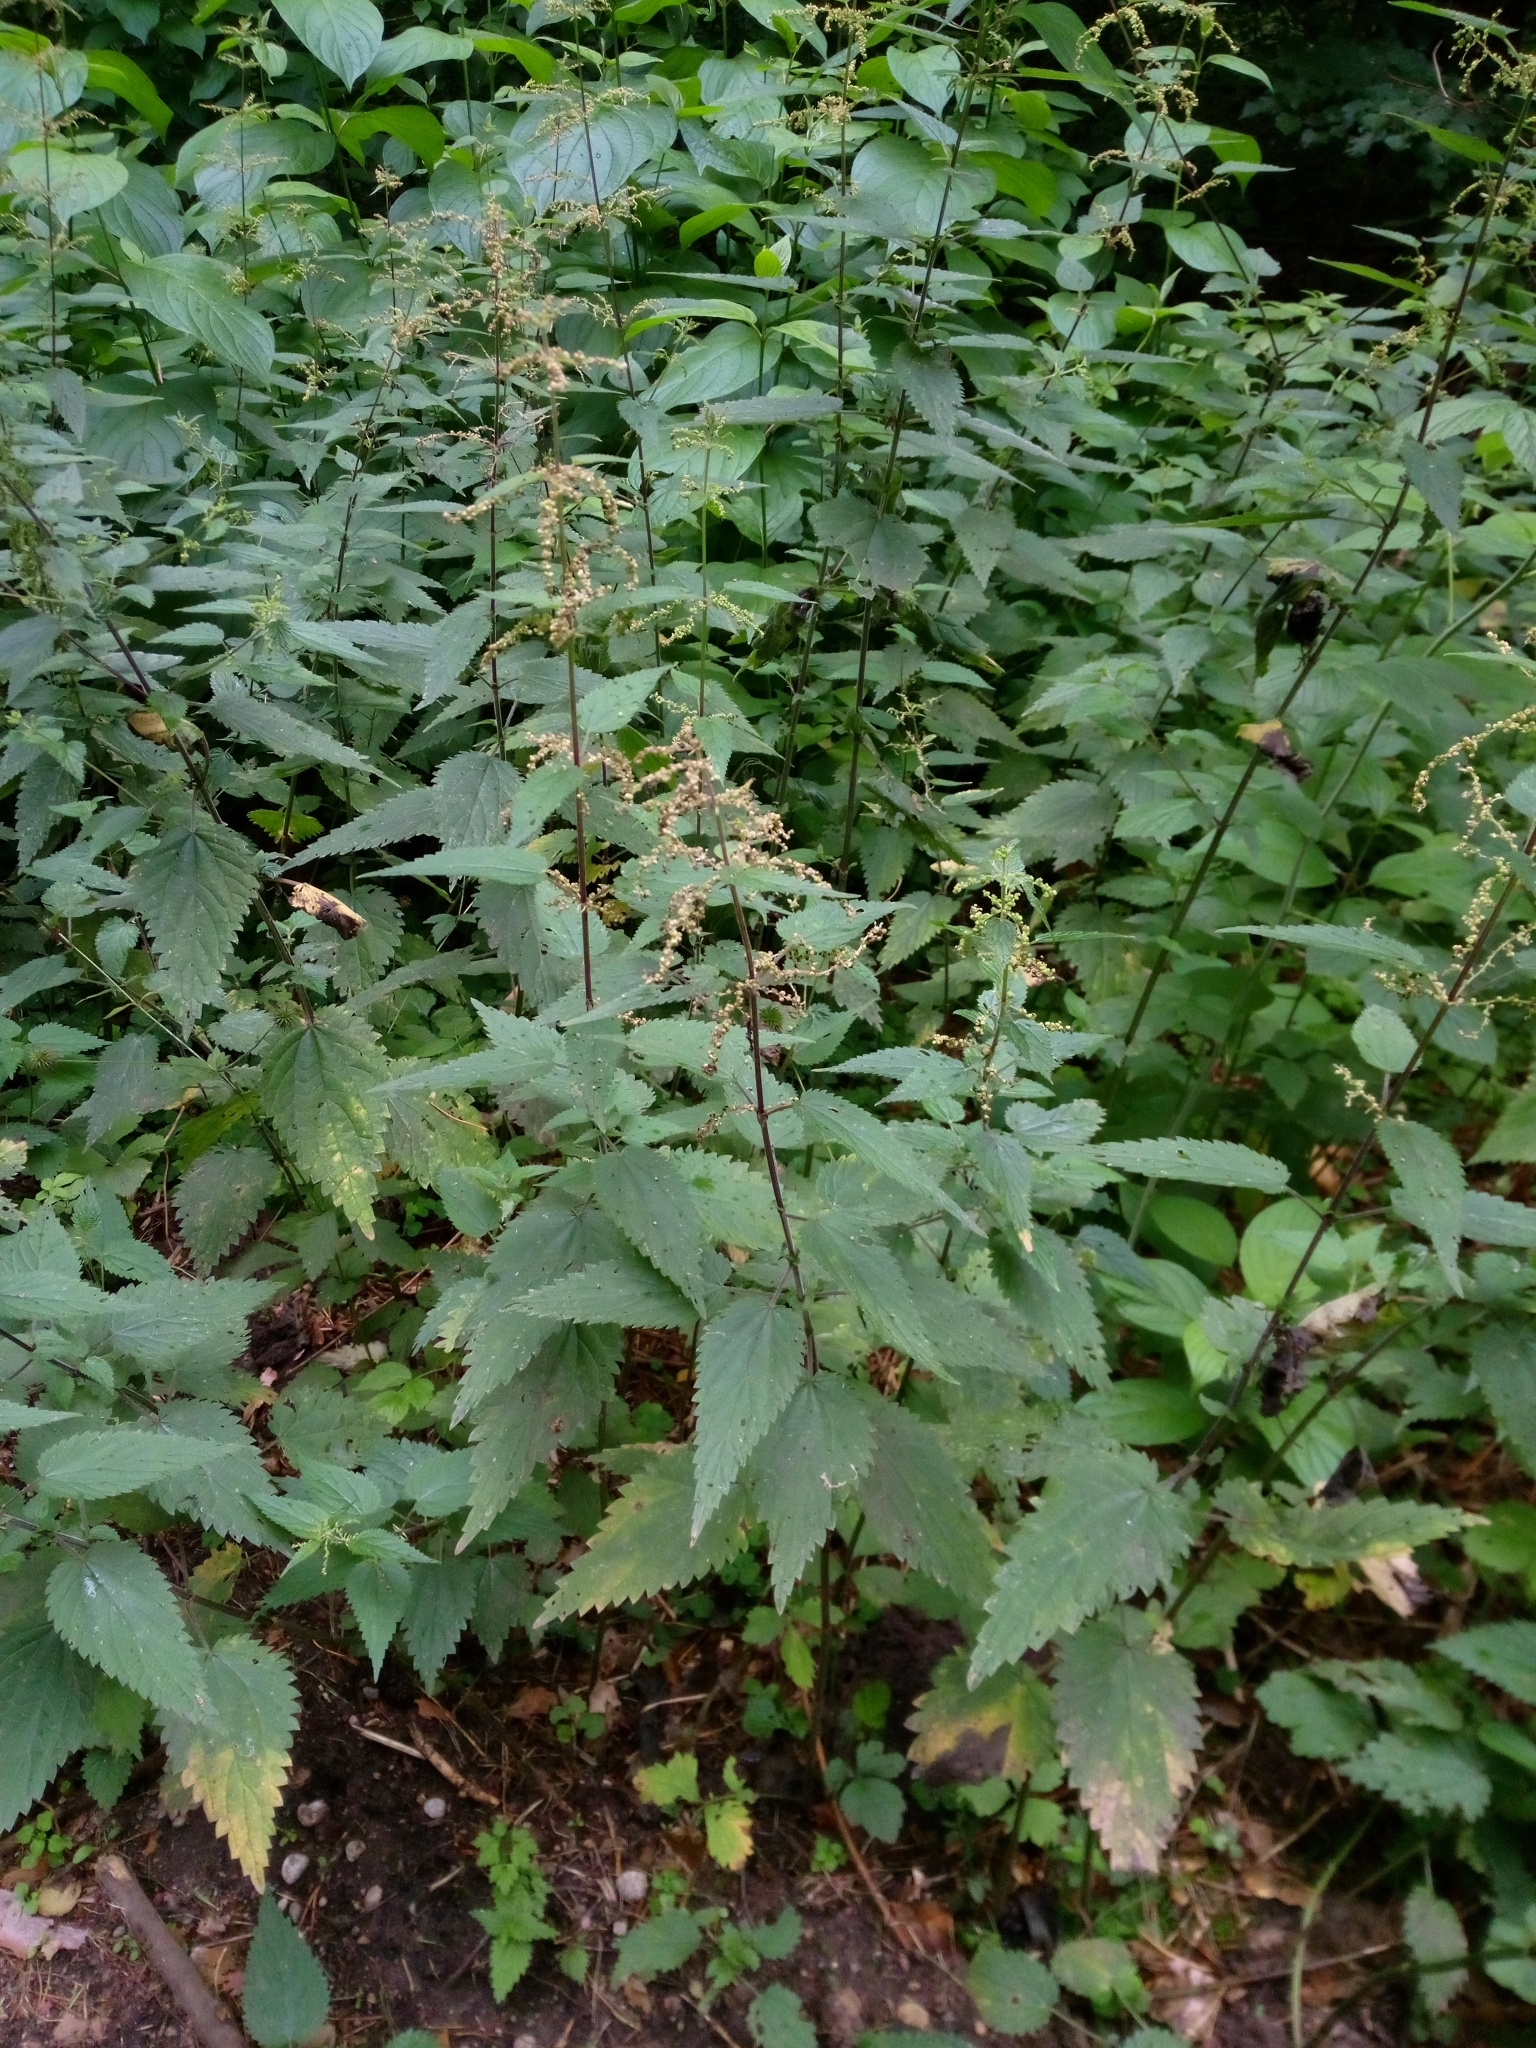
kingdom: Plantae
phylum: Tracheophyta
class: Magnoliopsida
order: Rosales
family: Urticaceae
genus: Urtica
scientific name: Urtica dioica
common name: Common nettle
